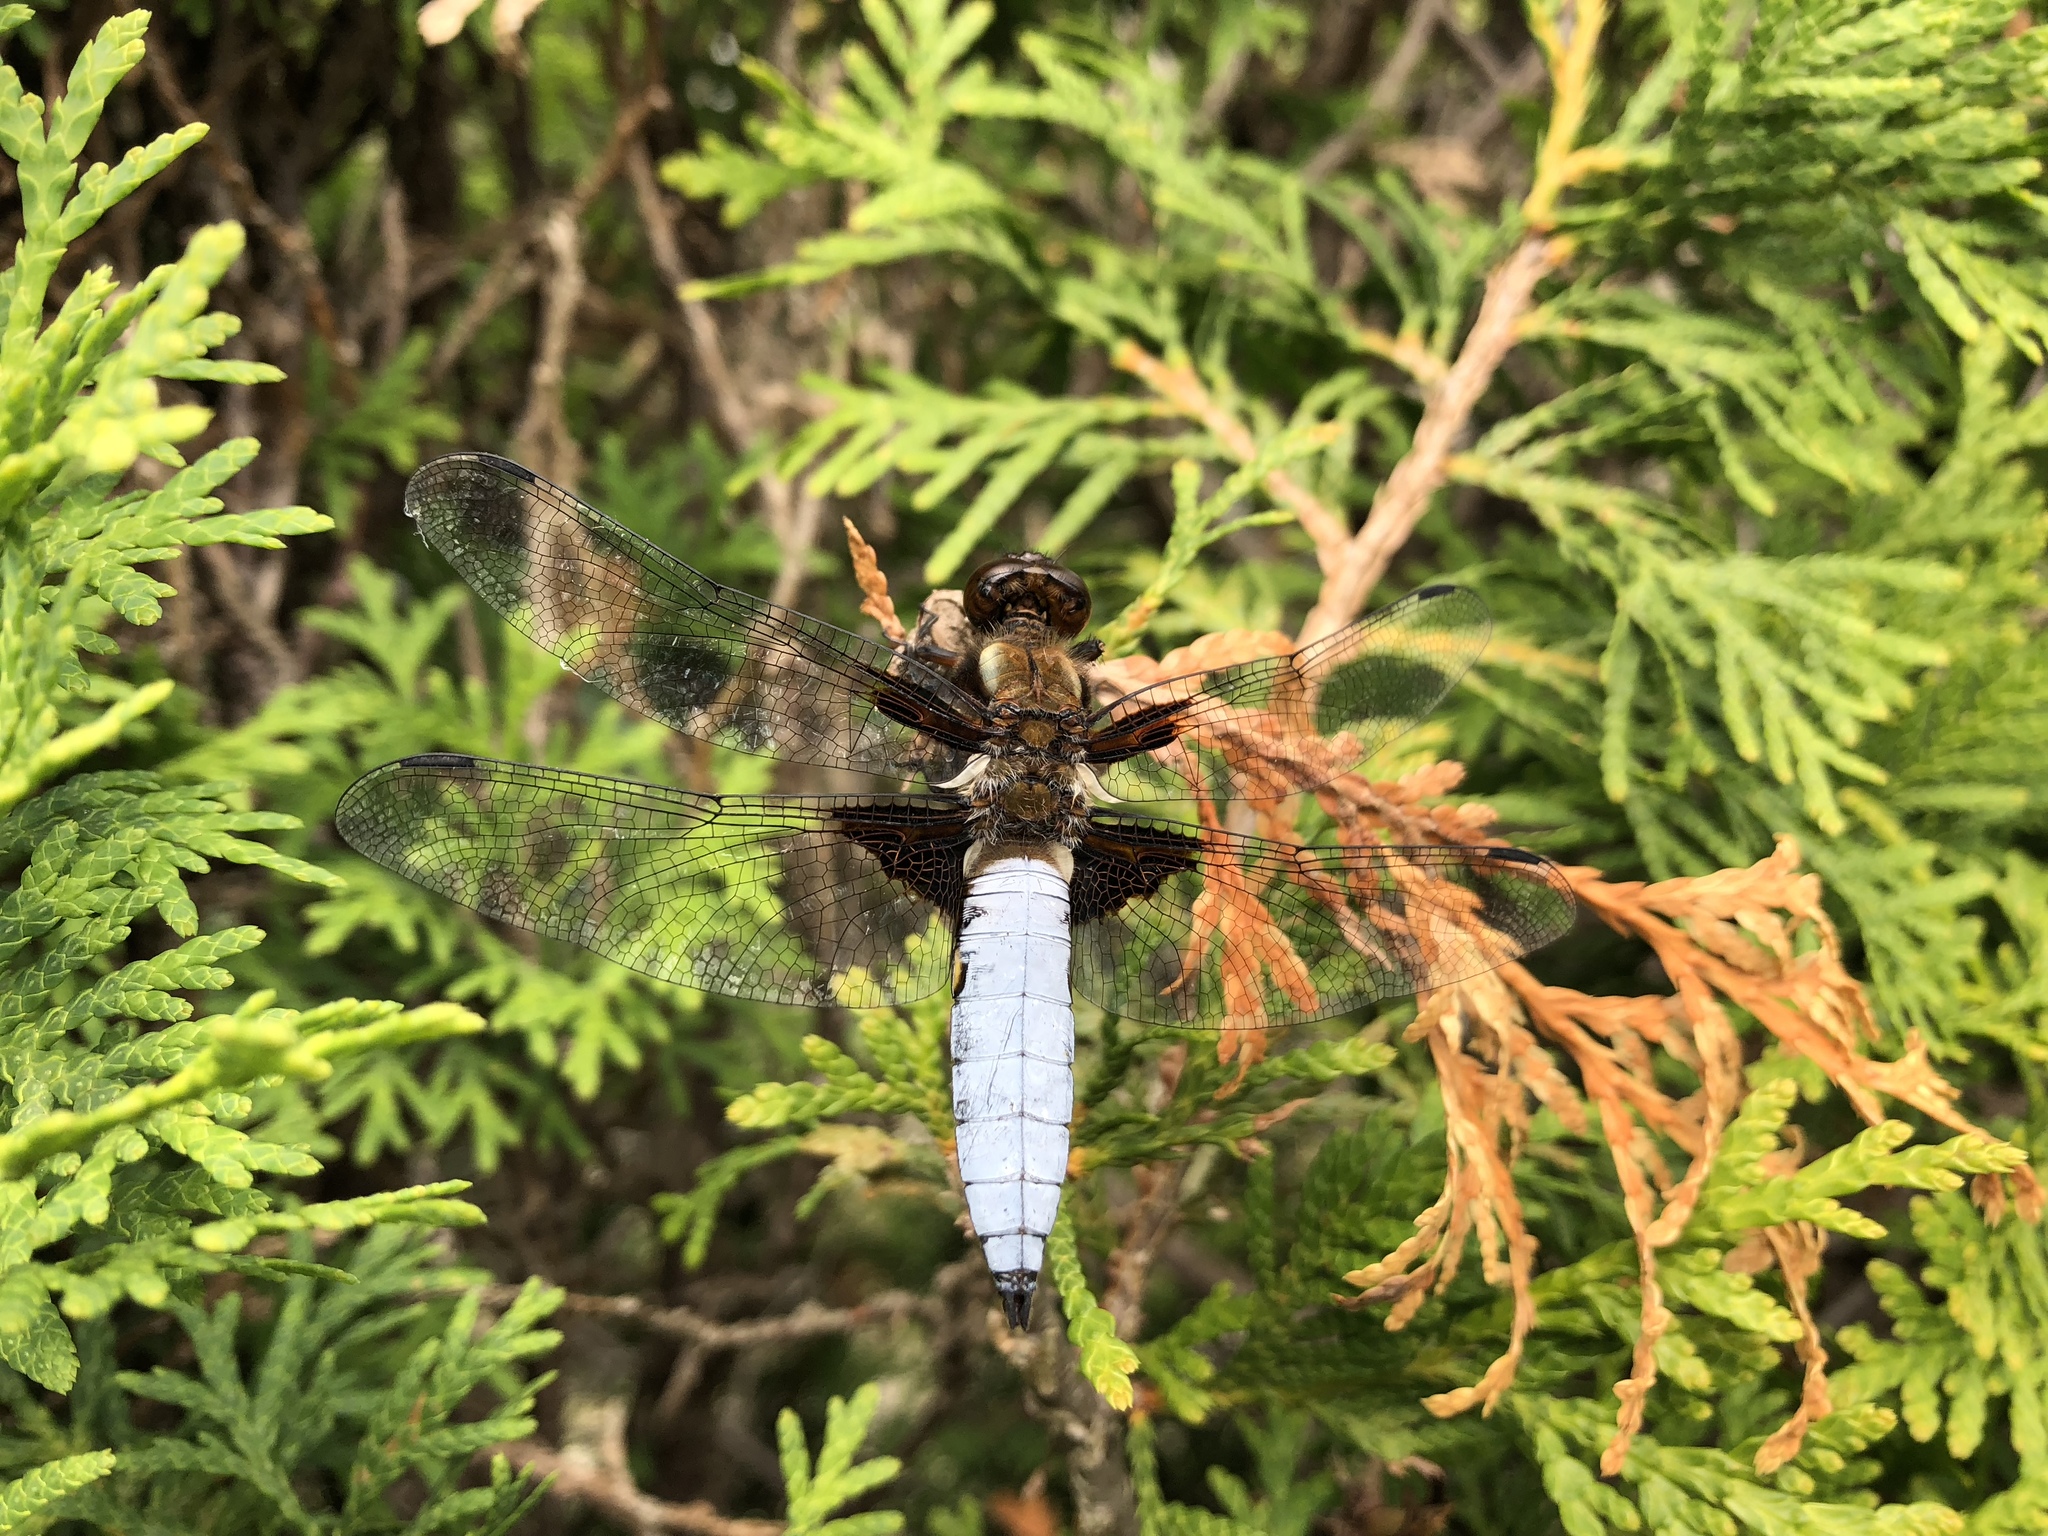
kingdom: Animalia
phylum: Arthropoda
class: Insecta
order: Odonata
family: Libellulidae
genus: Libellula
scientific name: Libellula depressa
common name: Broad-bodied chaser
